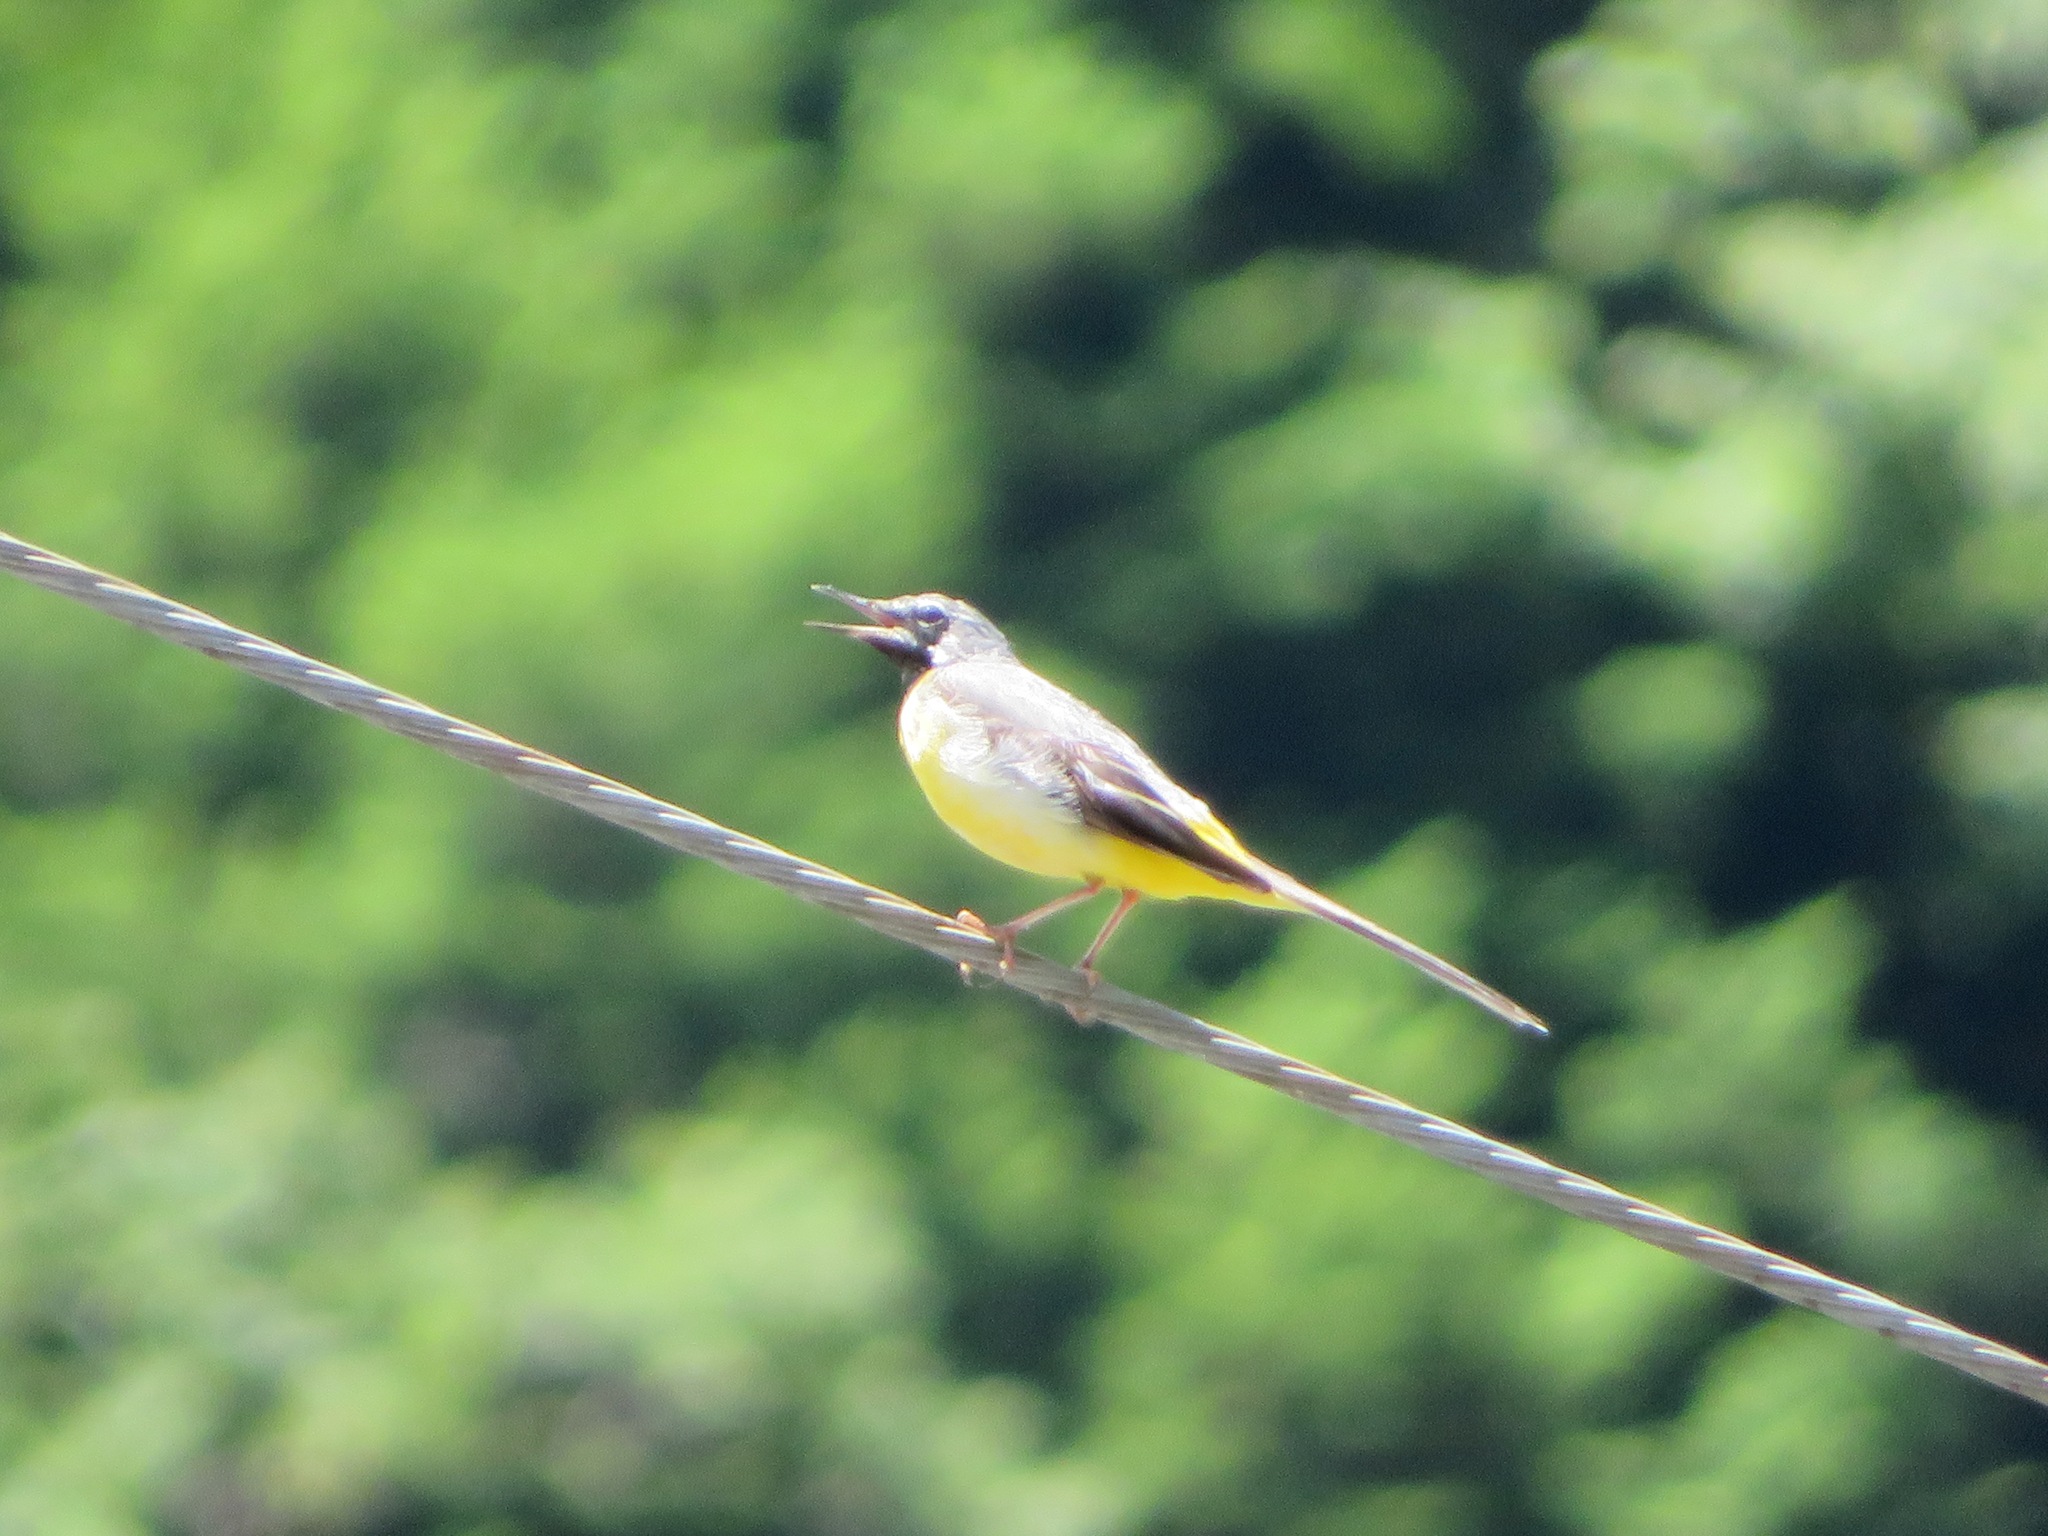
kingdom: Animalia
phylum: Chordata
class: Aves
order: Passeriformes
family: Motacillidae
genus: Motacilla
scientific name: Motacilla cinerea
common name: Grey wagtail
